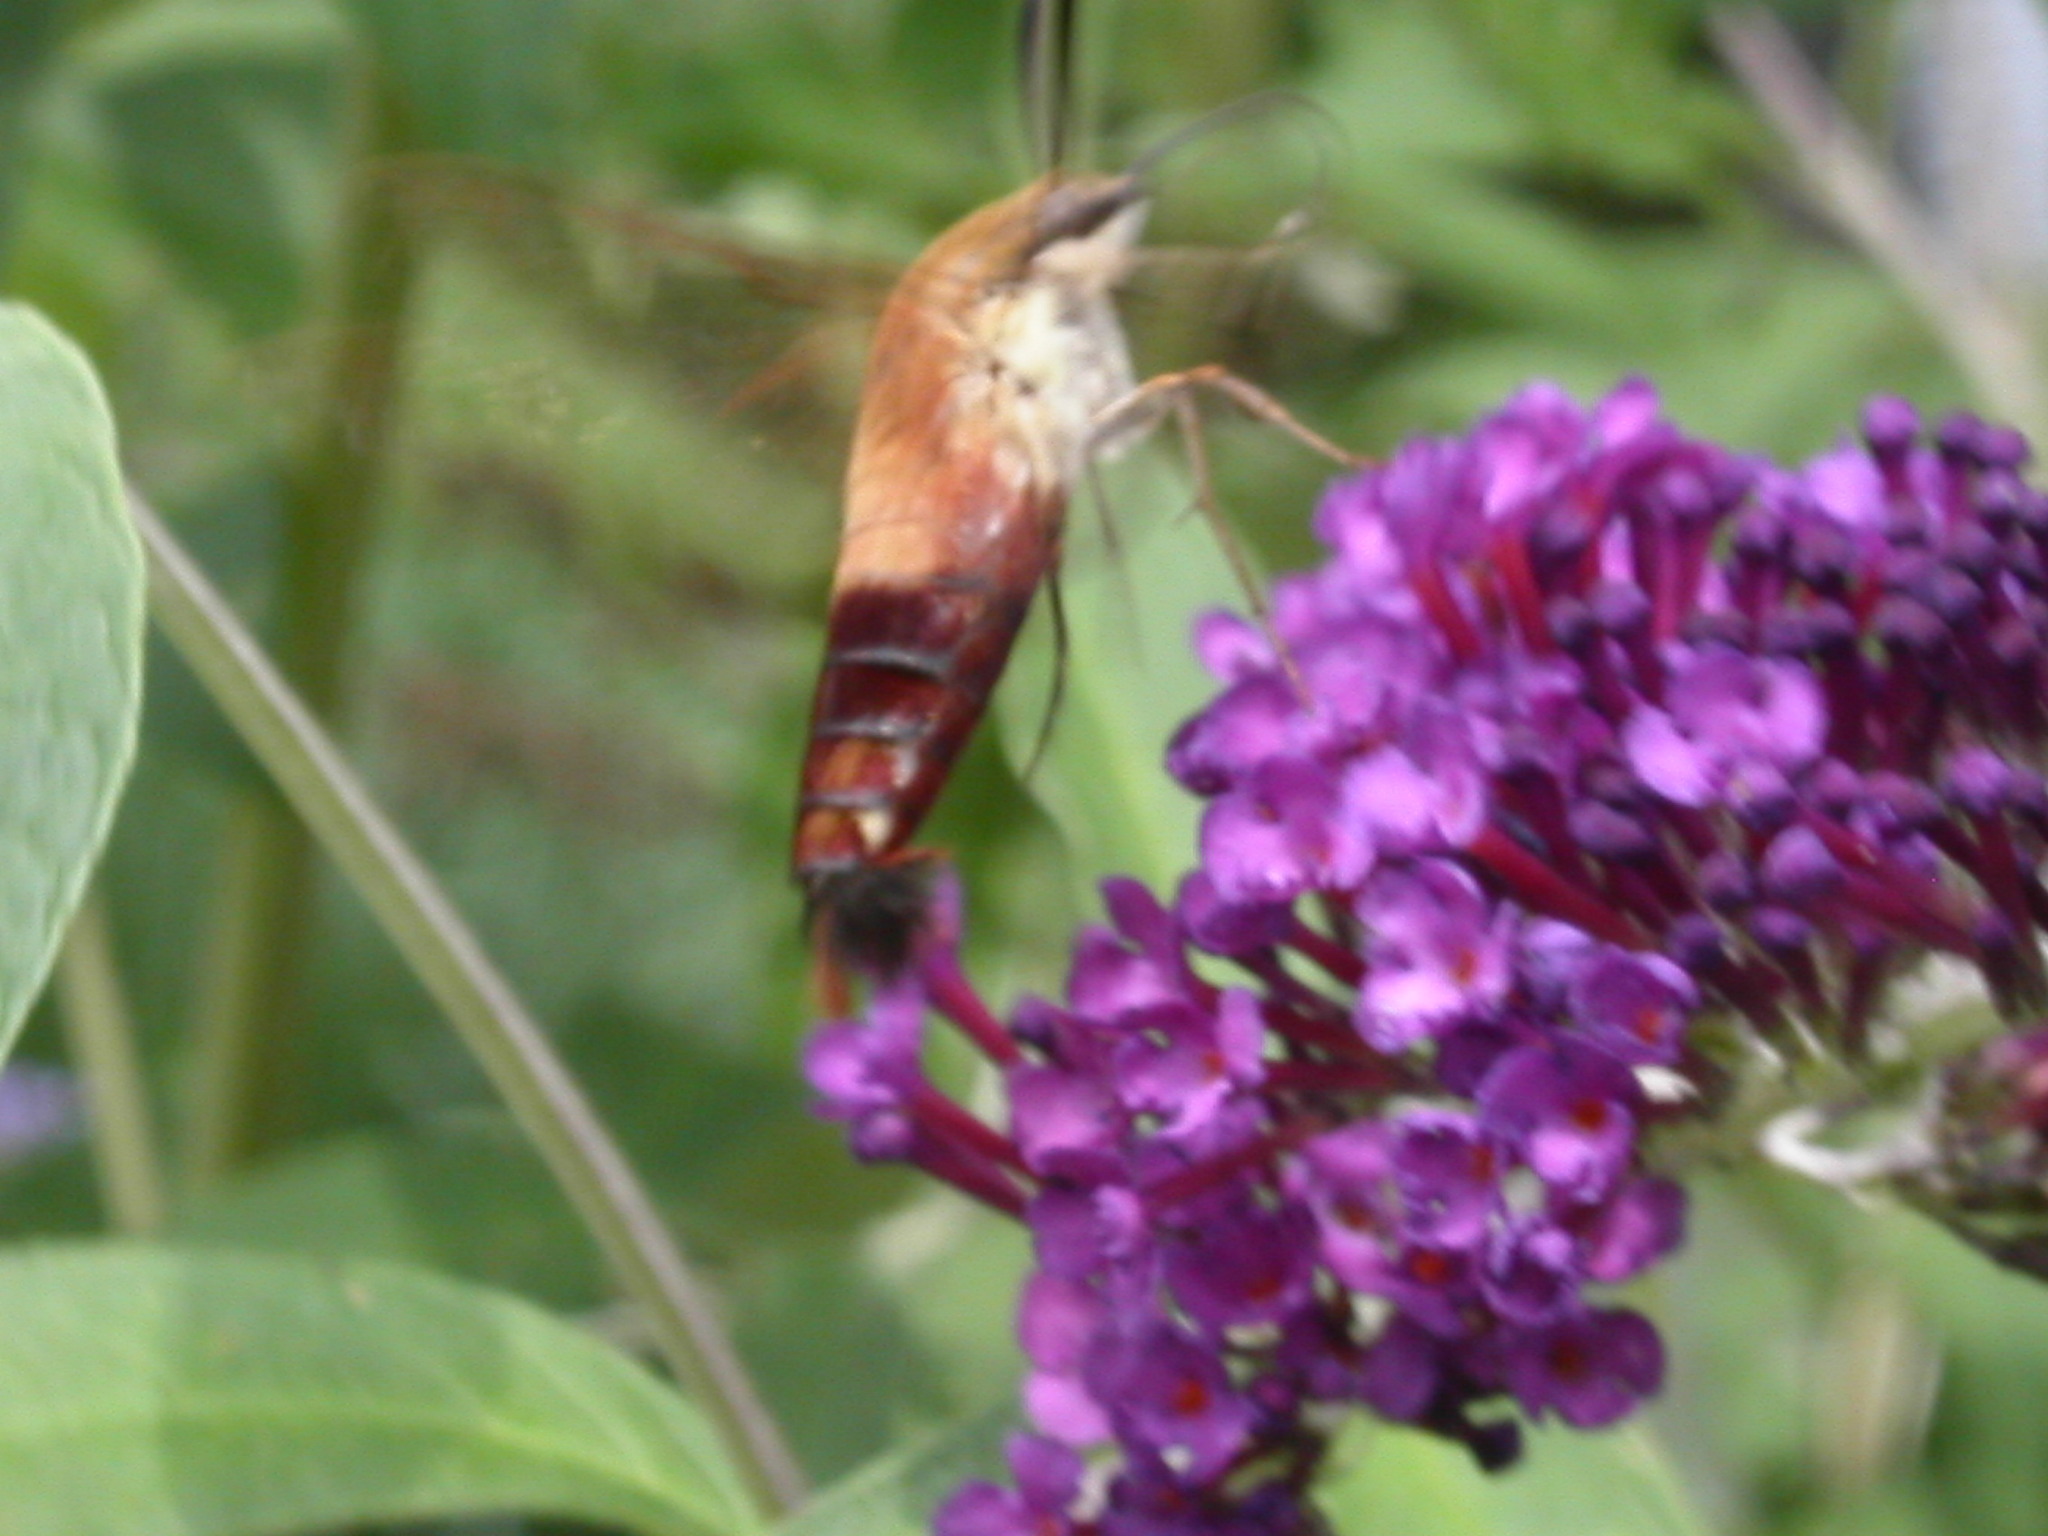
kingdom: Animalia
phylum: Arthropoda
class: Insecta
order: Lepidoptera
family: Sphingidae
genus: Hemaris
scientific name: Hemaris thysbe
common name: Common clear-wing
